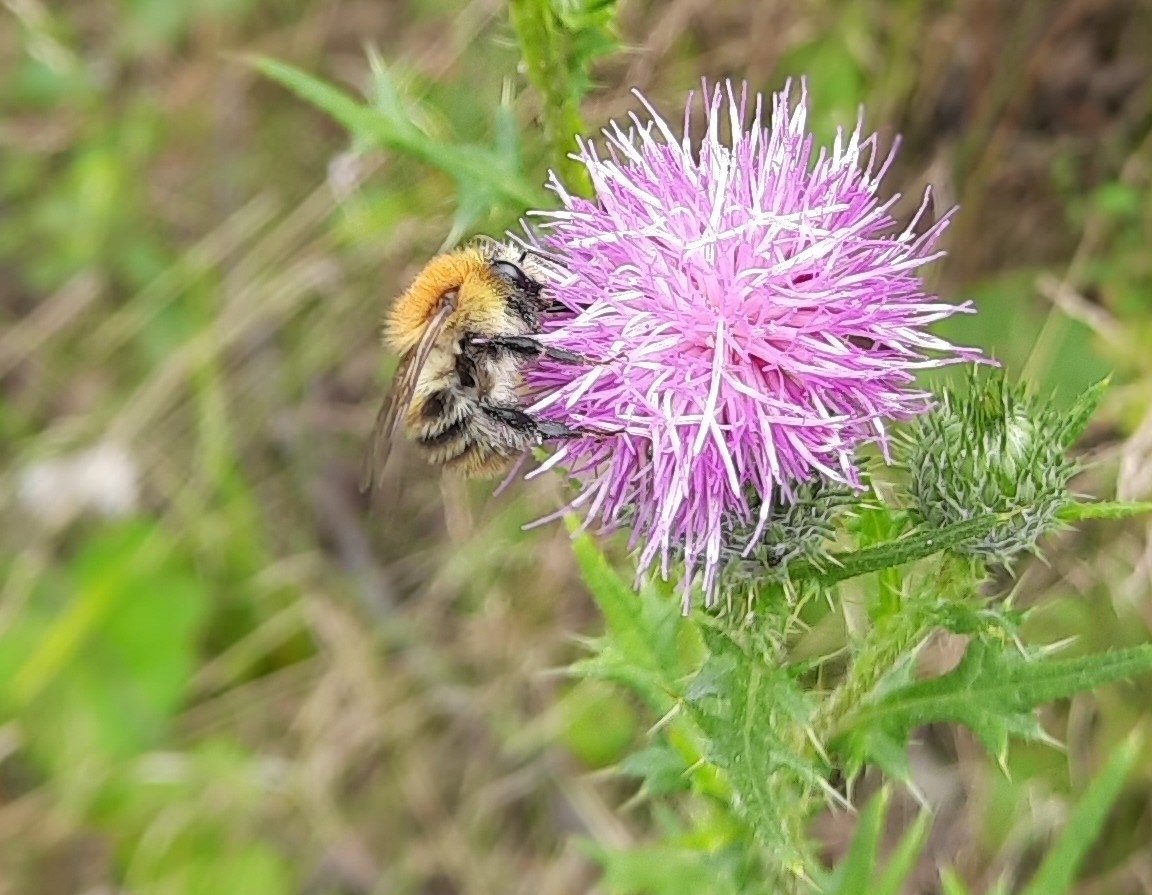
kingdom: Animalia
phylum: Arthropoda
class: Insecta
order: Hymenoptera
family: Apidae
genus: Bombus
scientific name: Bombus pascuorum
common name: Common carder bee
